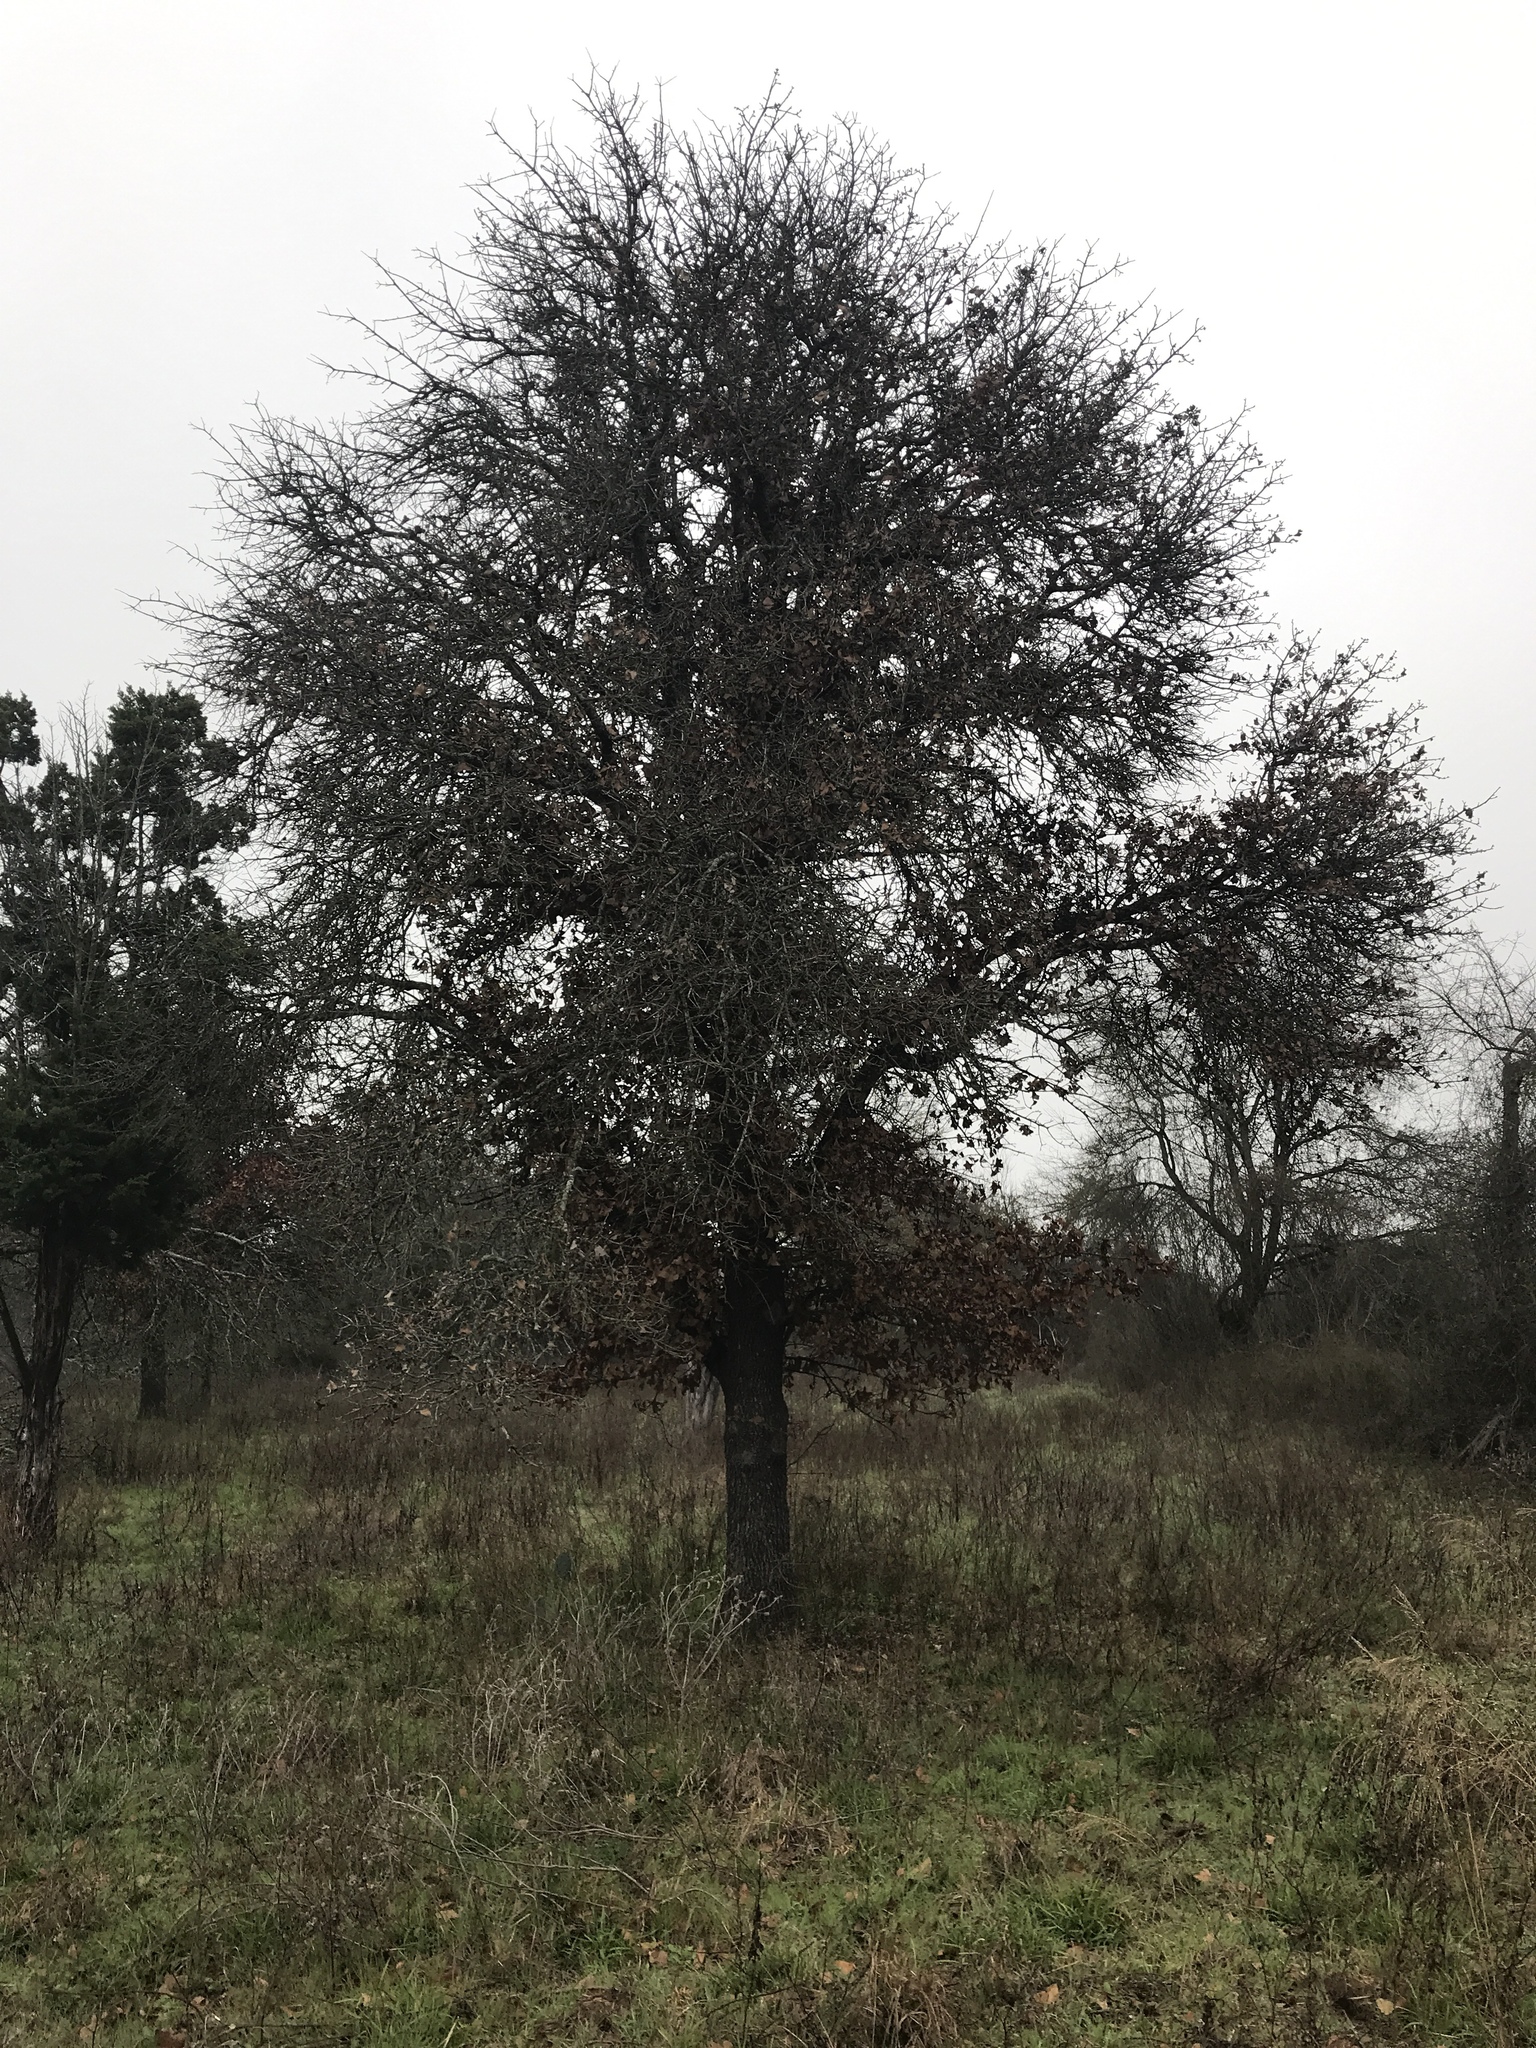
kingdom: Plantae
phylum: Tracheophyta
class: Magnoliopsida
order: Fagales
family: Fagaceae
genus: Quercus
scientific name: Quercus marilandica
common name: Blackjack oak
